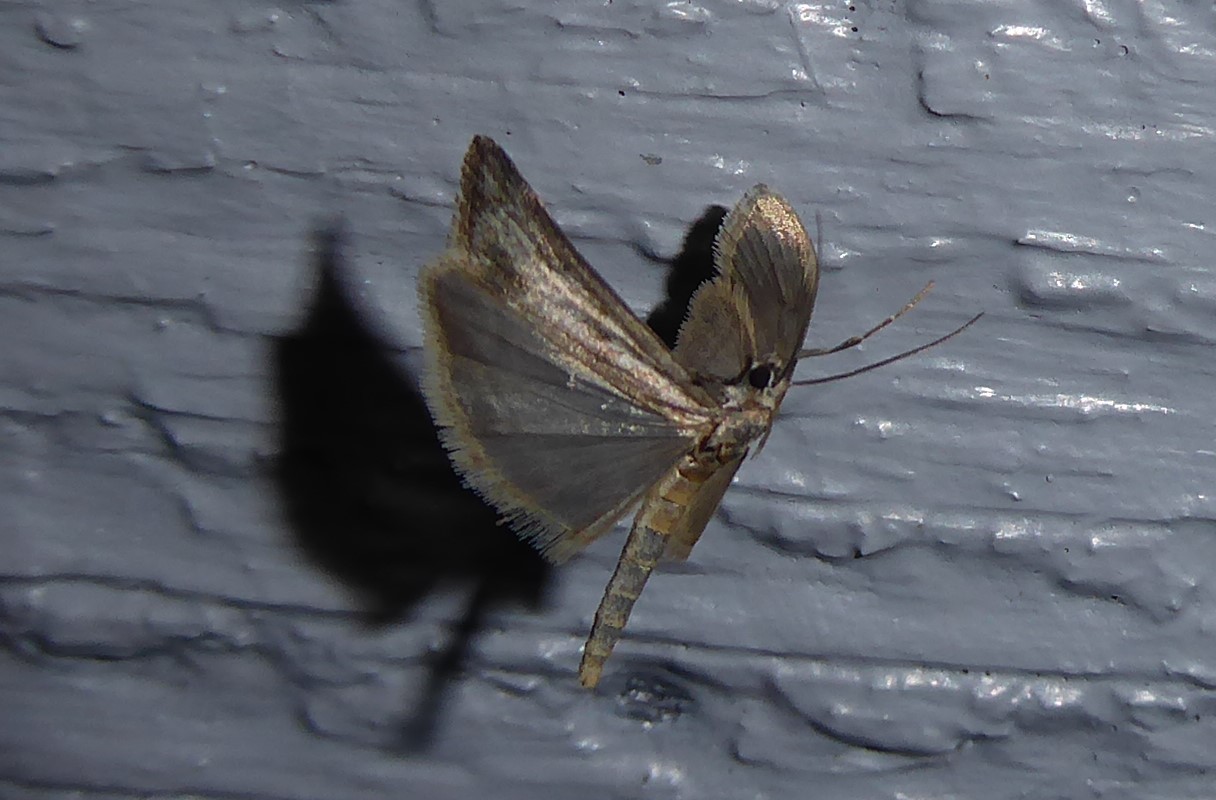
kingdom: Animalia
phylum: Arthropoda
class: Insecta
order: Lepidoptera
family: Crambidae
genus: Eudonia
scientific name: Eudonia leptalea
